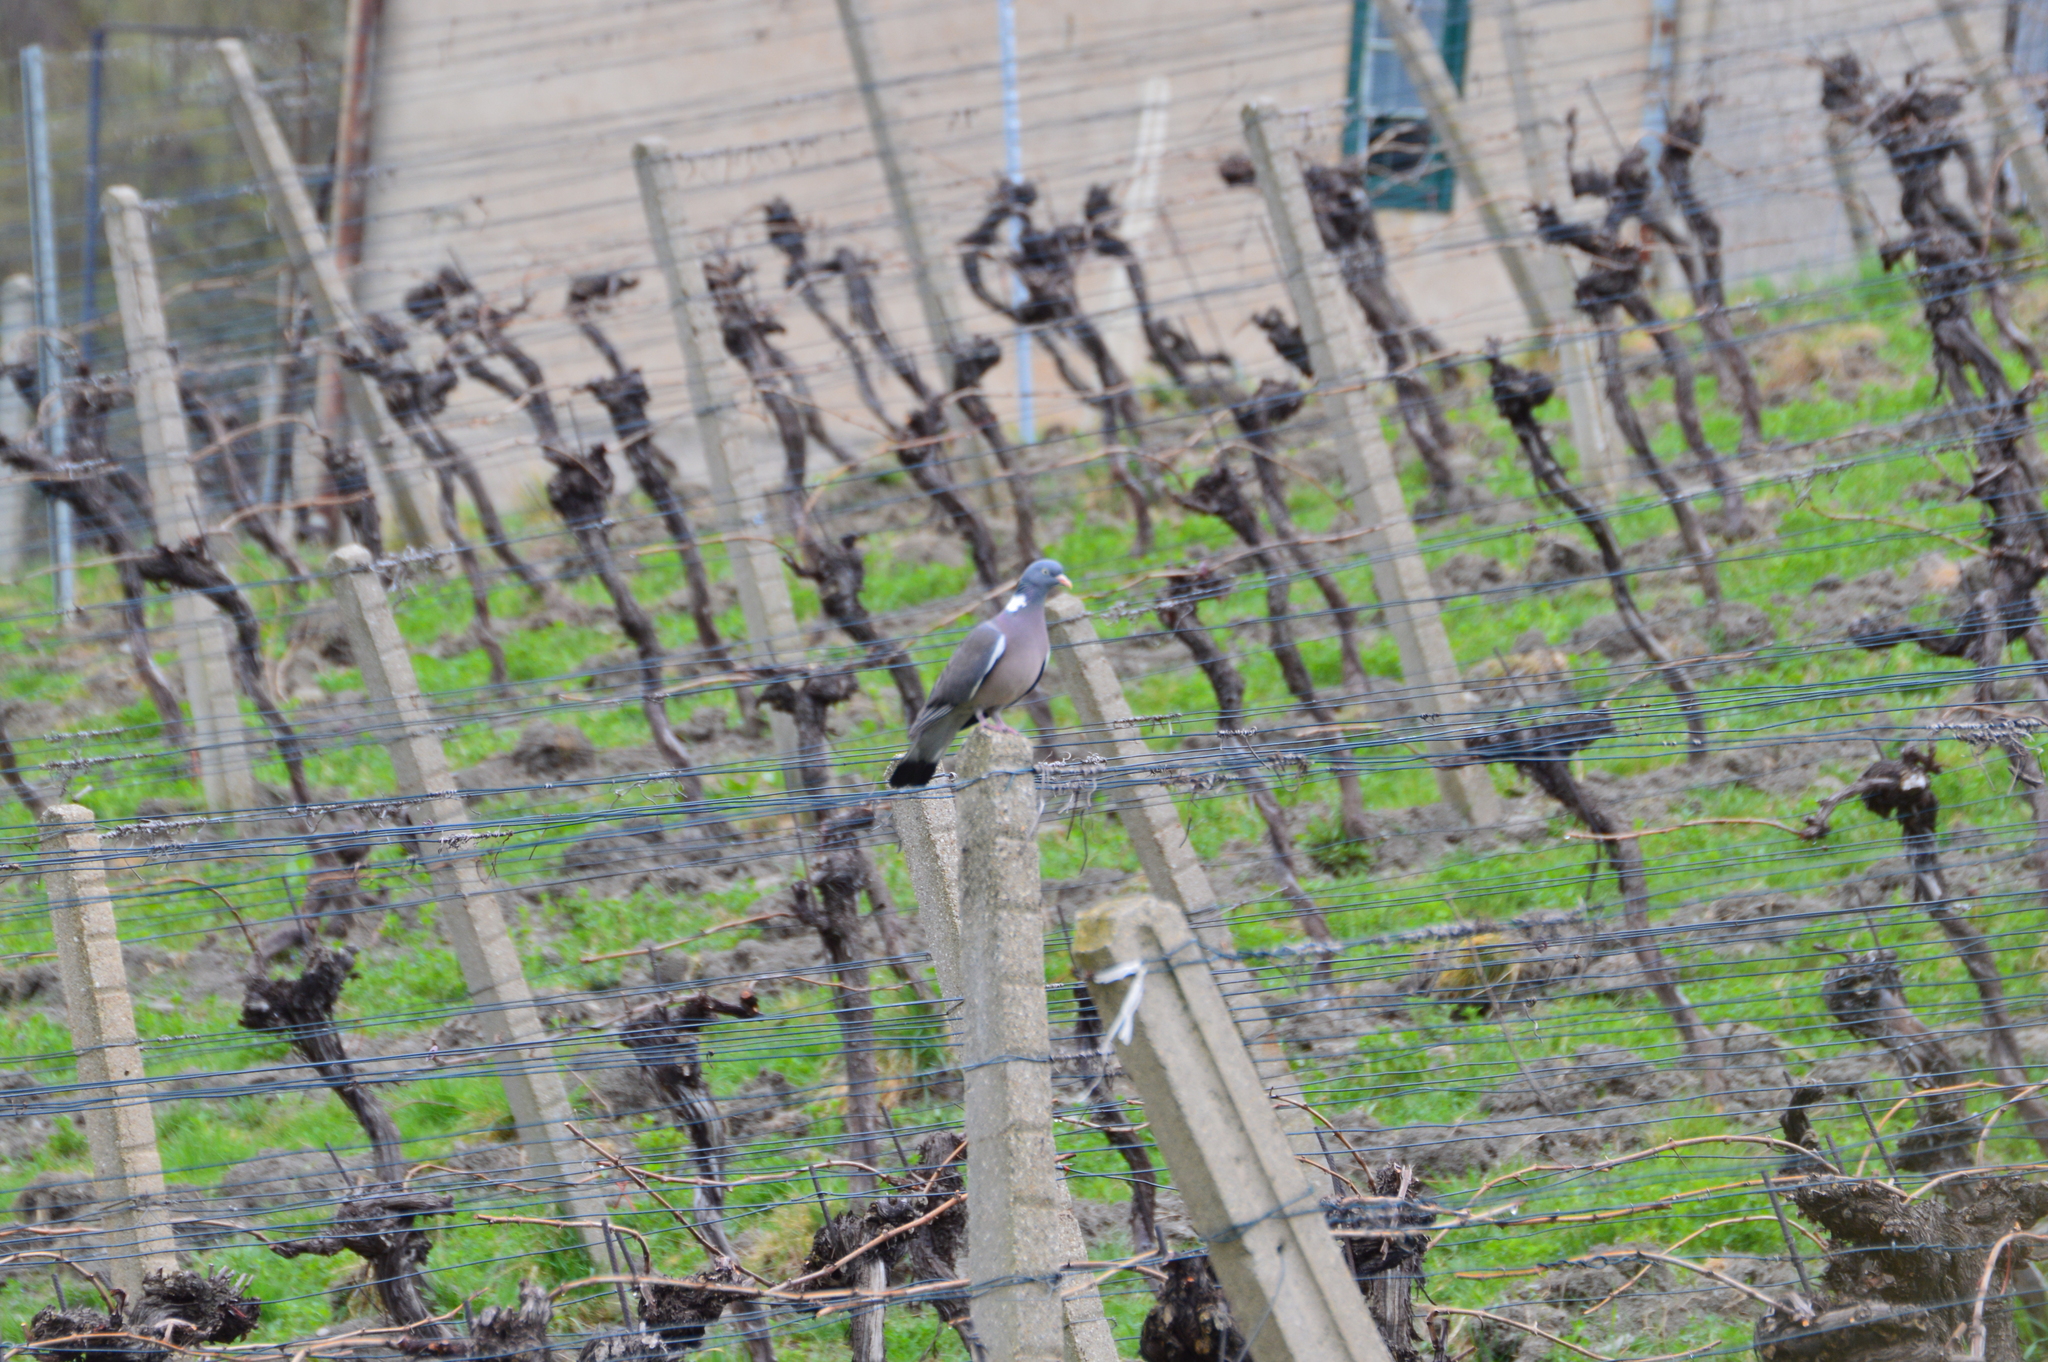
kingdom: Animalia
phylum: Chordata
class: Aves
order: Columbiformes
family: Columbidae
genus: Columba
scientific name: Columba palumbus
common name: Common wood pigeon
